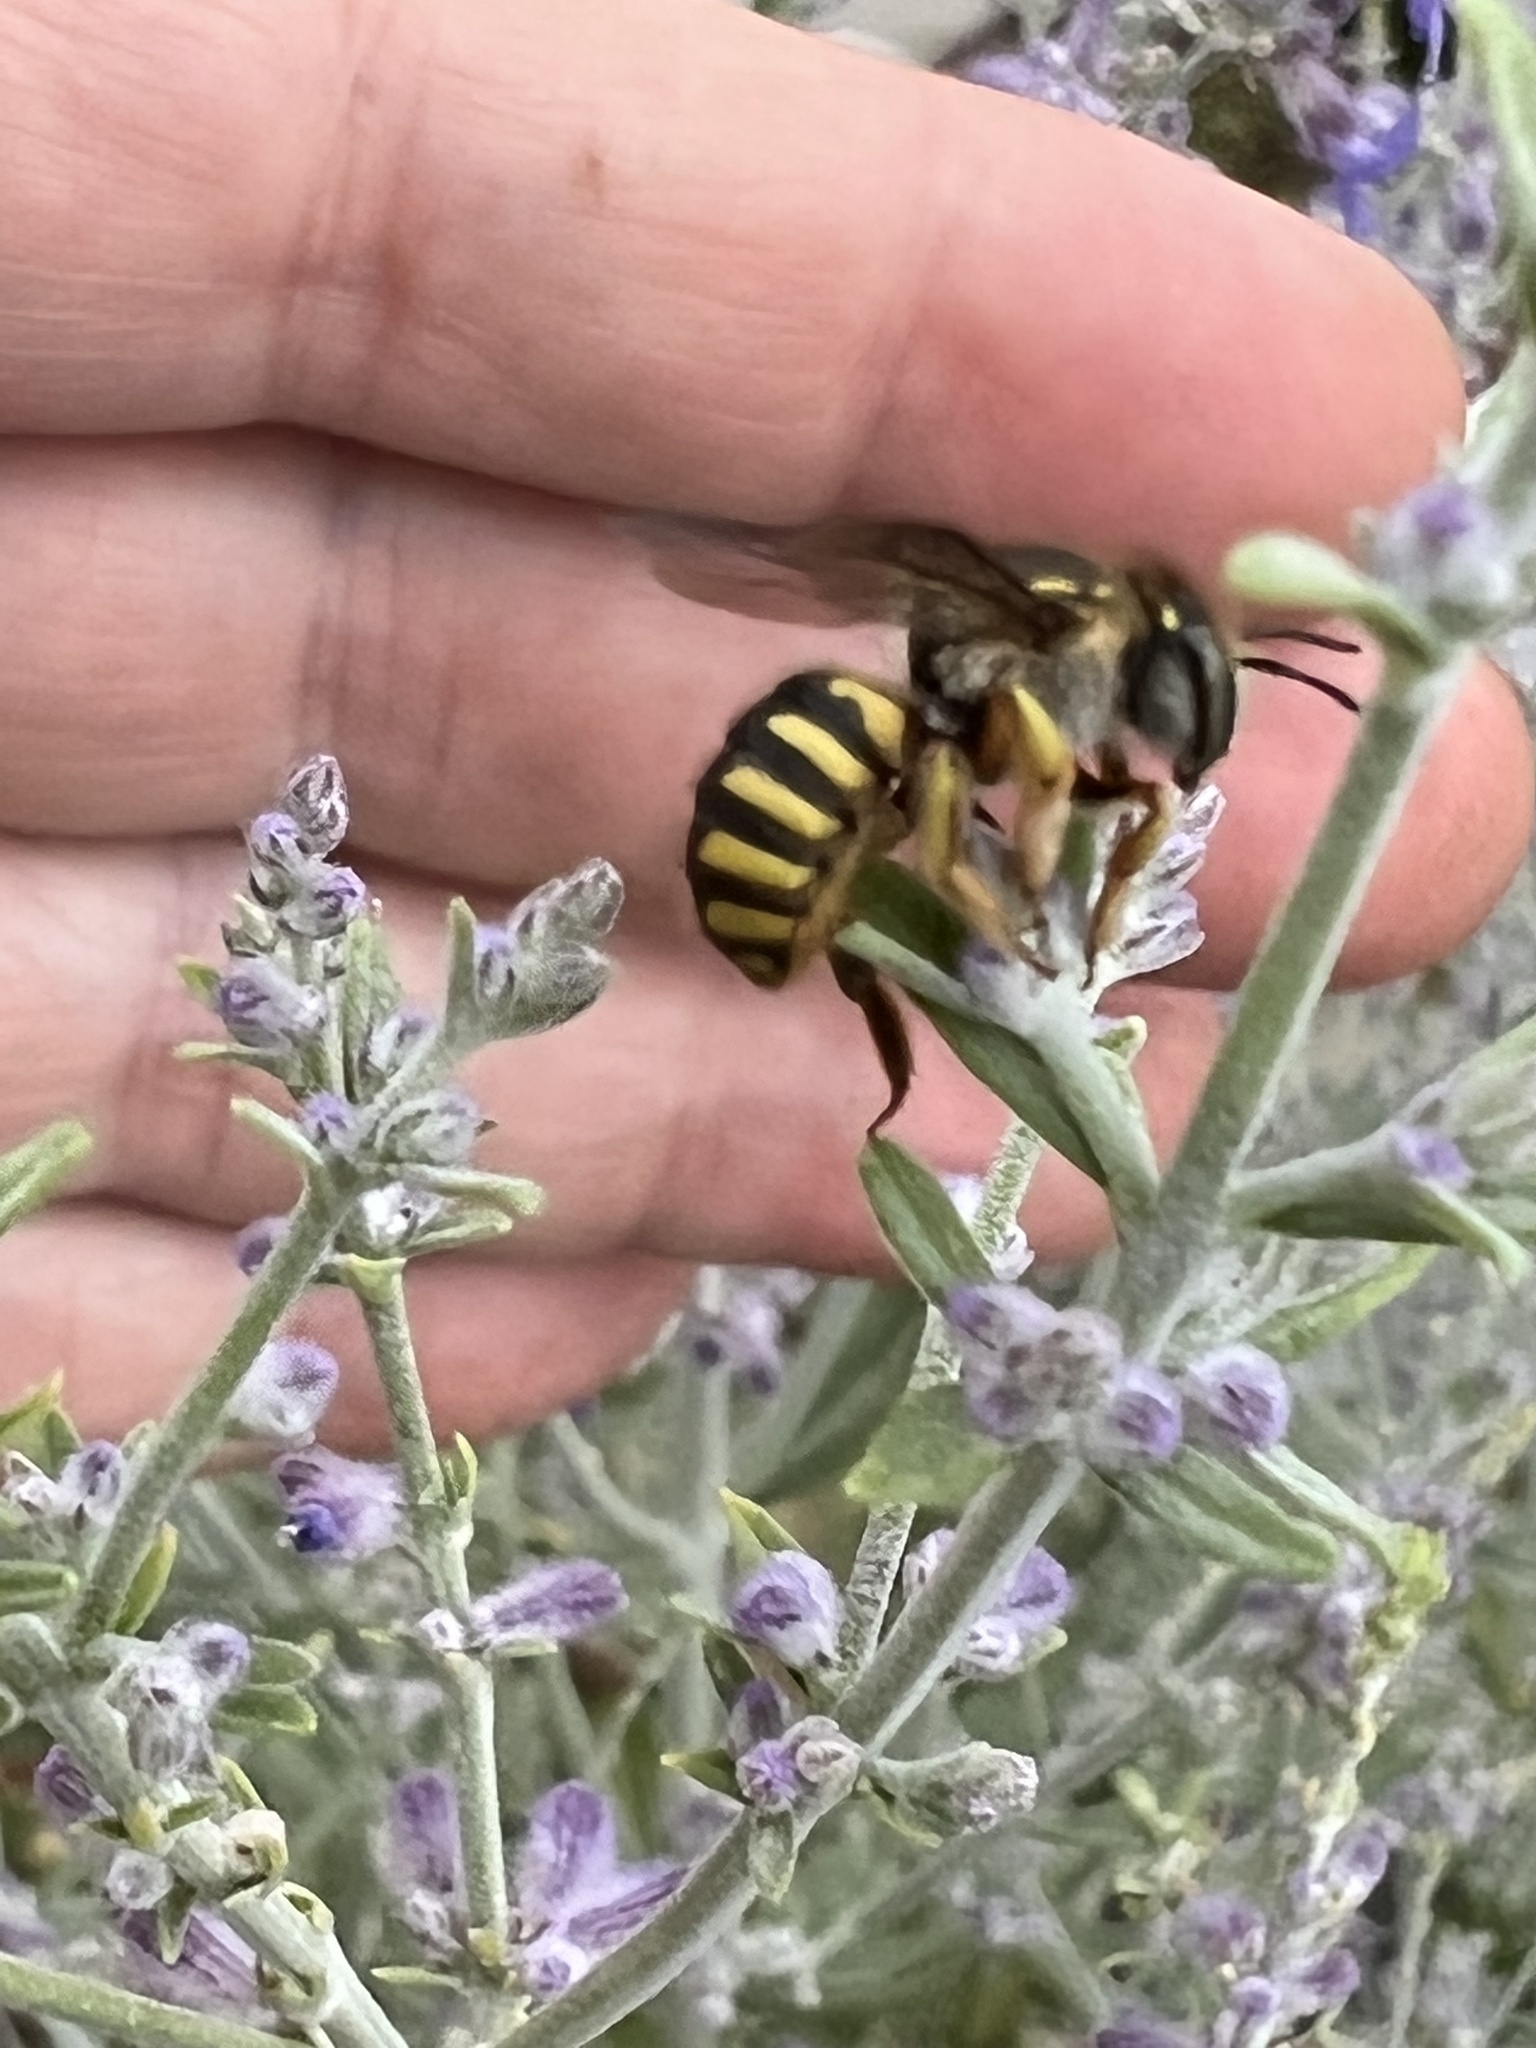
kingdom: Animalia
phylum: Arthropoda
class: Insecta
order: Hymenoptera
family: Megachilidae
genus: Anthidium
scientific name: Anthidium manicatum
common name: Wool carder bee
